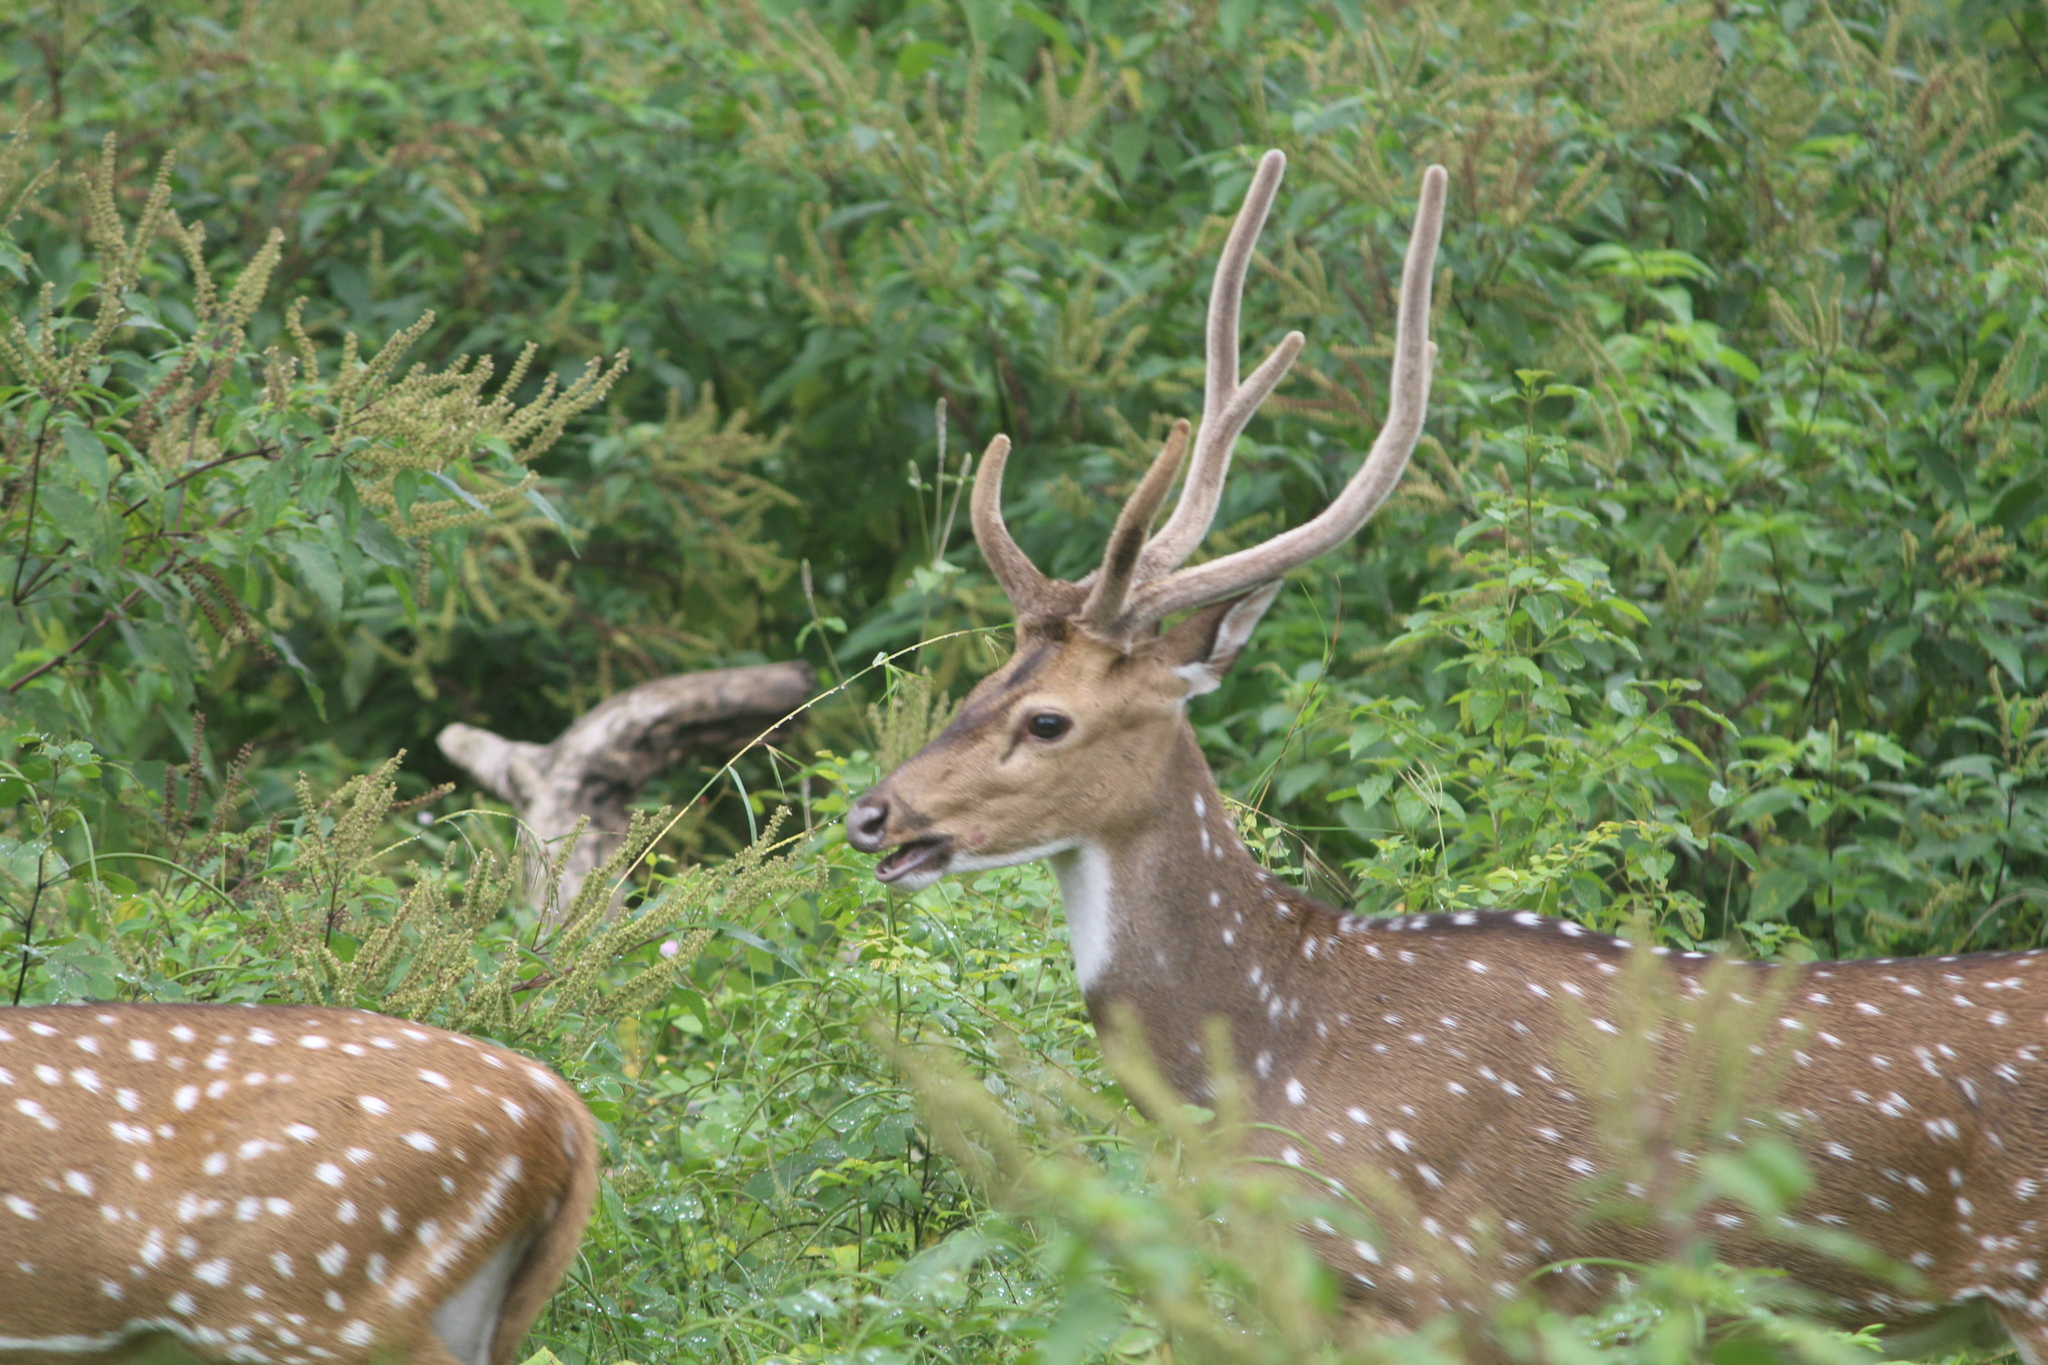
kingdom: Animalia
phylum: Chordata
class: Mammalia
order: Artiodactyla
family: Cervidae
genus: Axis
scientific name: Axis axis
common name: Chital
